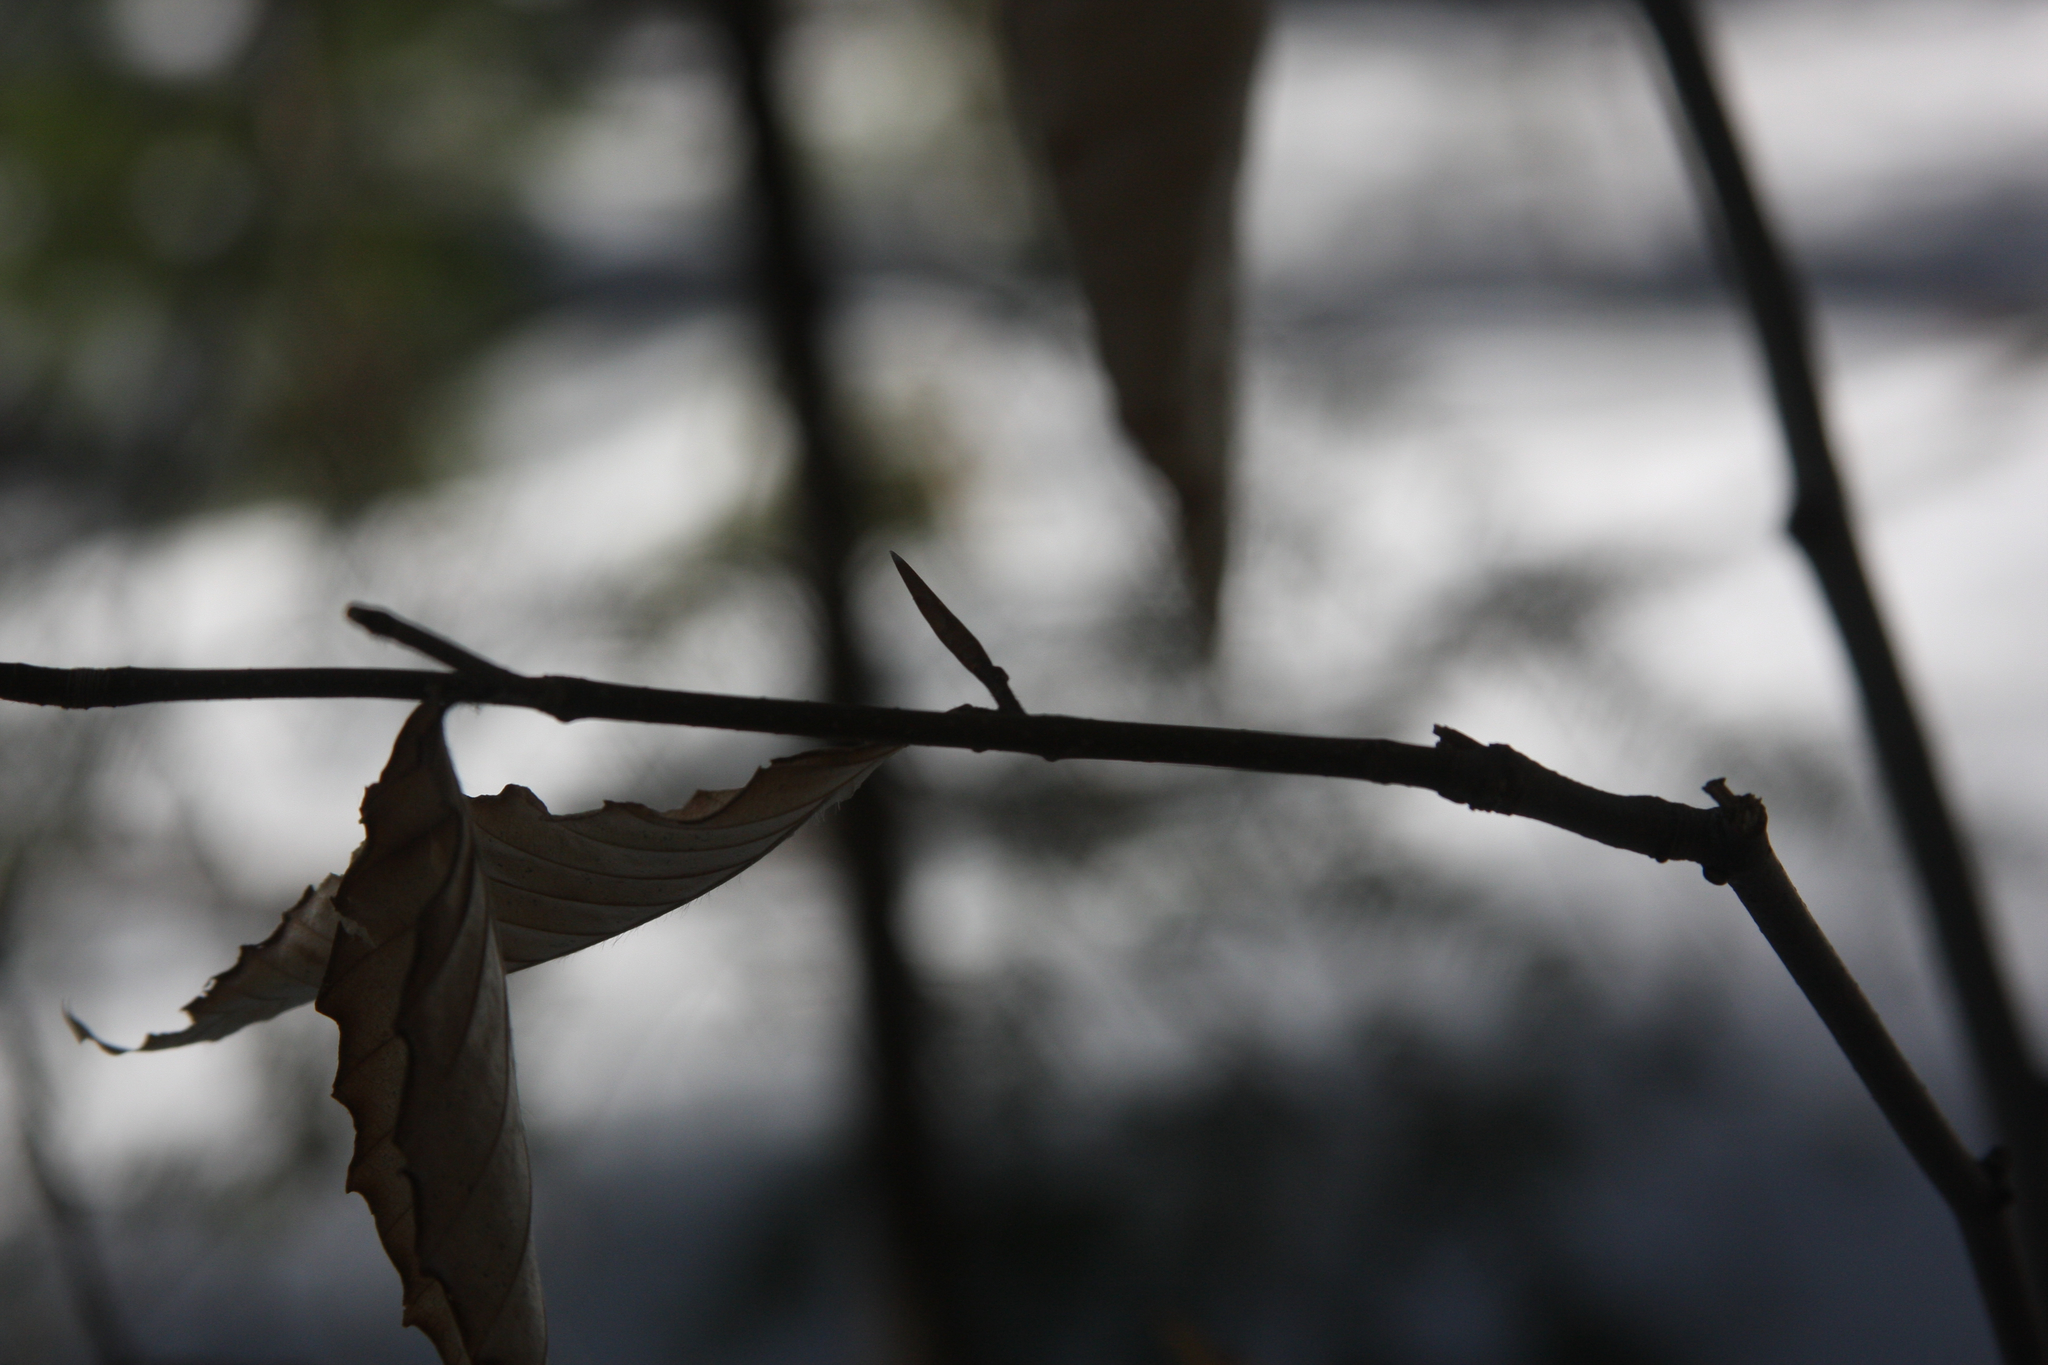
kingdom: Plantae
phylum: Tracheophyta
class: Magnoliopsida
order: Fagales
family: Fagaceae
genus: Fagus
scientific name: Fagus grandifolia
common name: American beech
